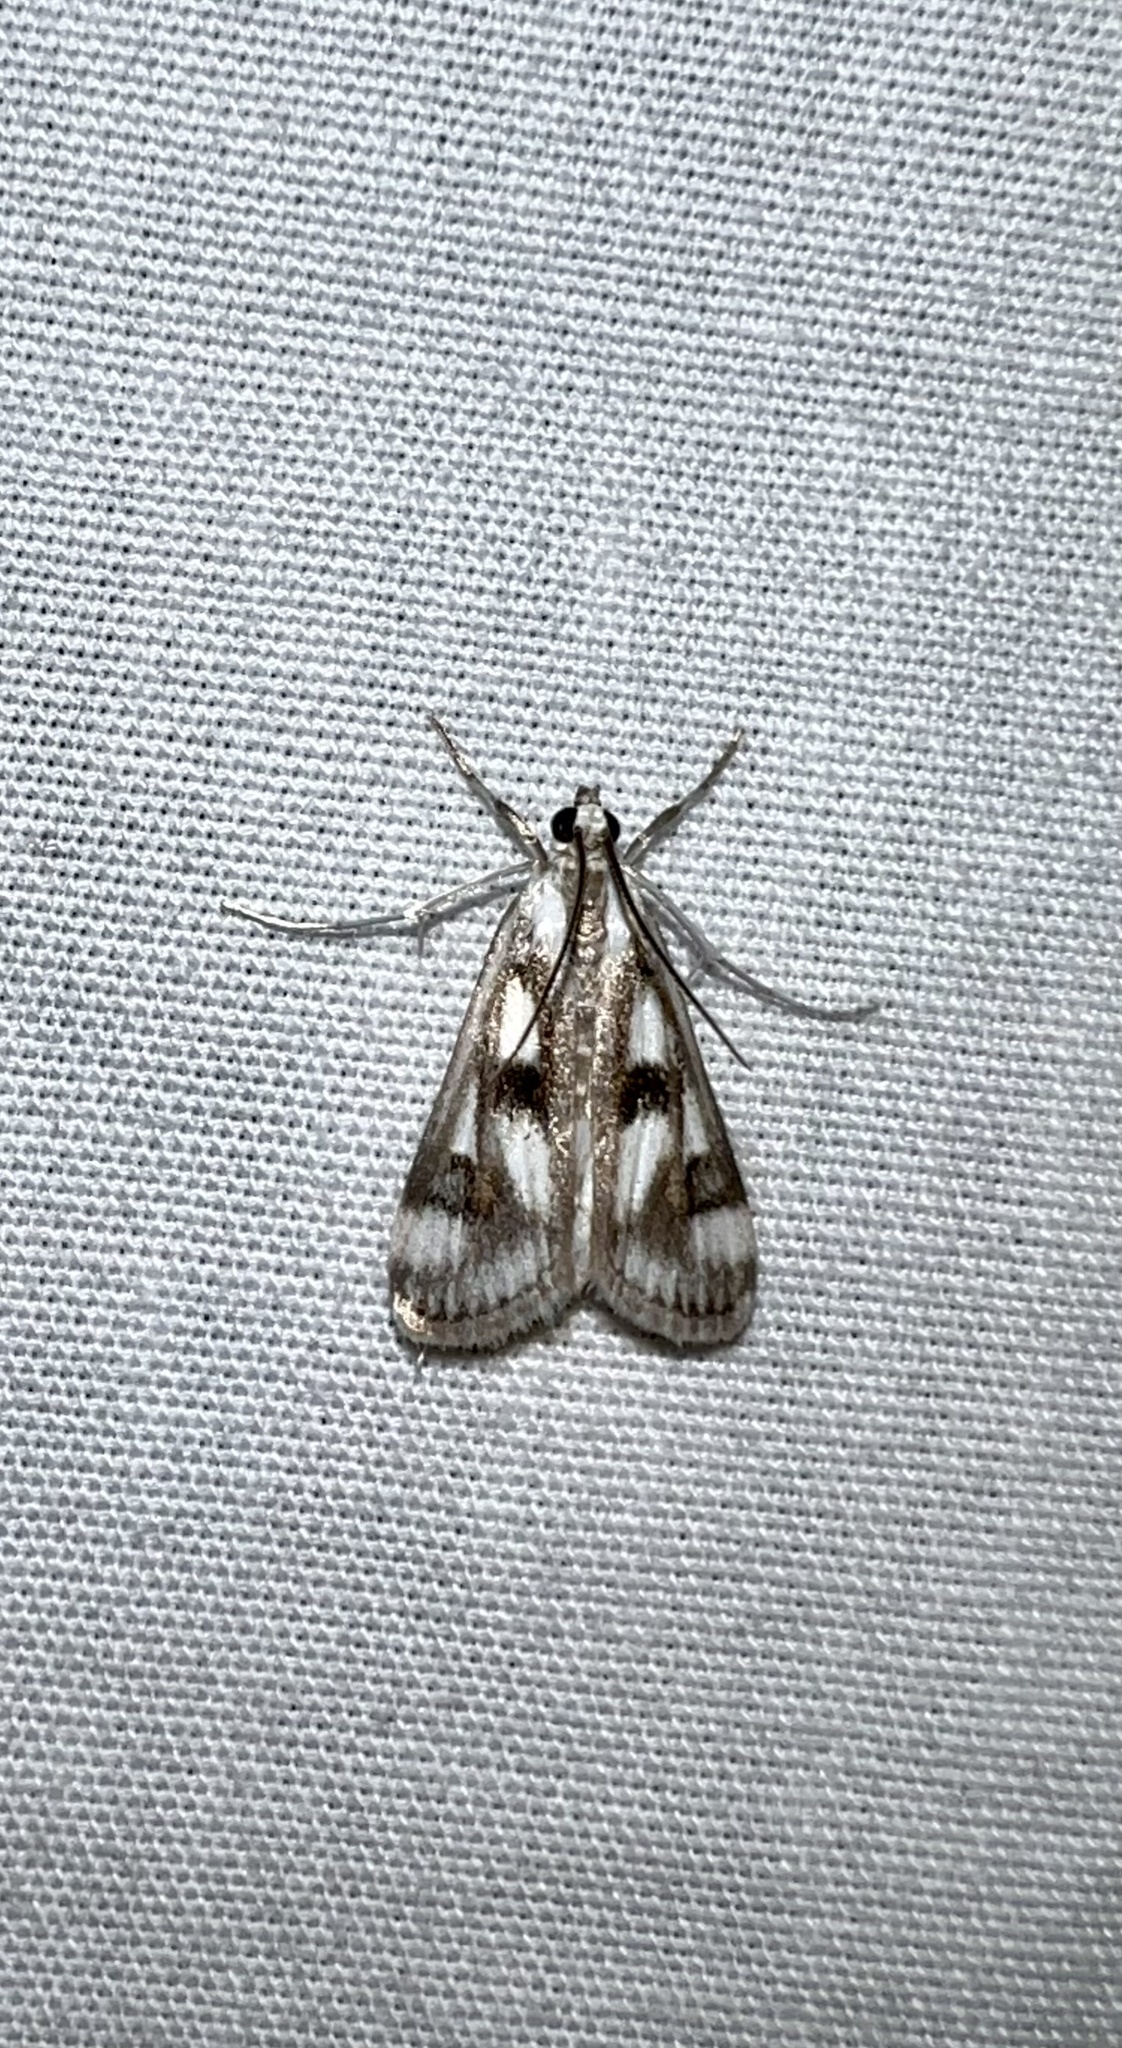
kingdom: Animalia
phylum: Arthropoda
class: Insecta
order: Lepidoptera
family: Crambidae
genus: Parapoynx
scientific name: Parapoynx maculalis
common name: Polymorphic pondweed moth
